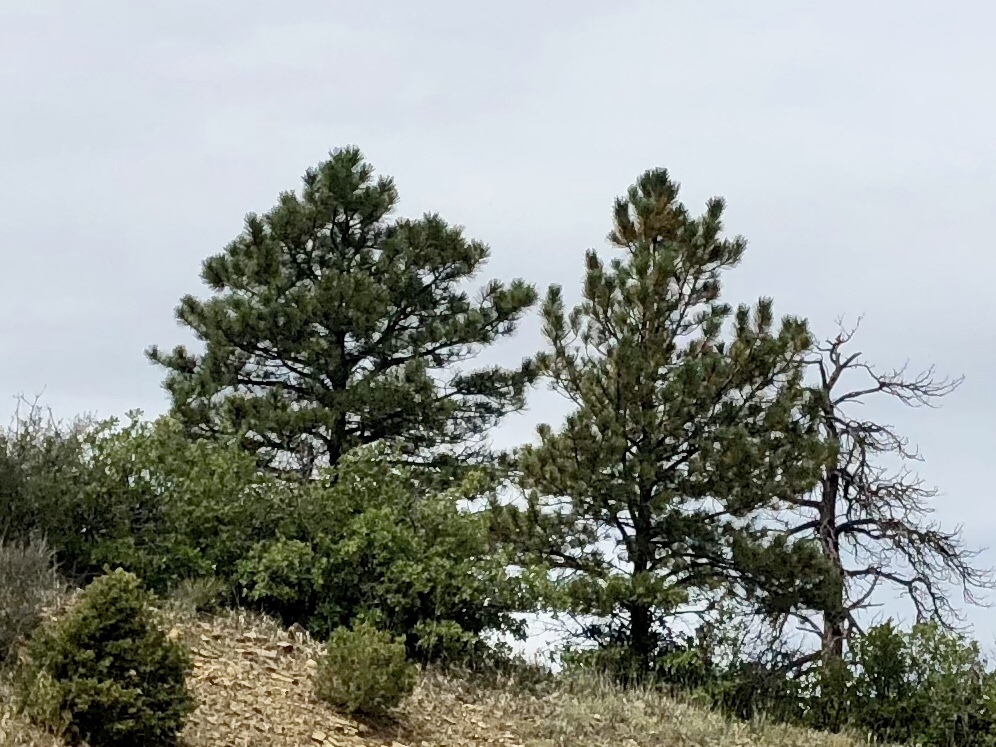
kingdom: Plantae
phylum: Tracheophyta
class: Pinopsida
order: Pinales
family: Pinaceae
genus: Pinus
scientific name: Pinus ponderosa
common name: Western yellow-pine
